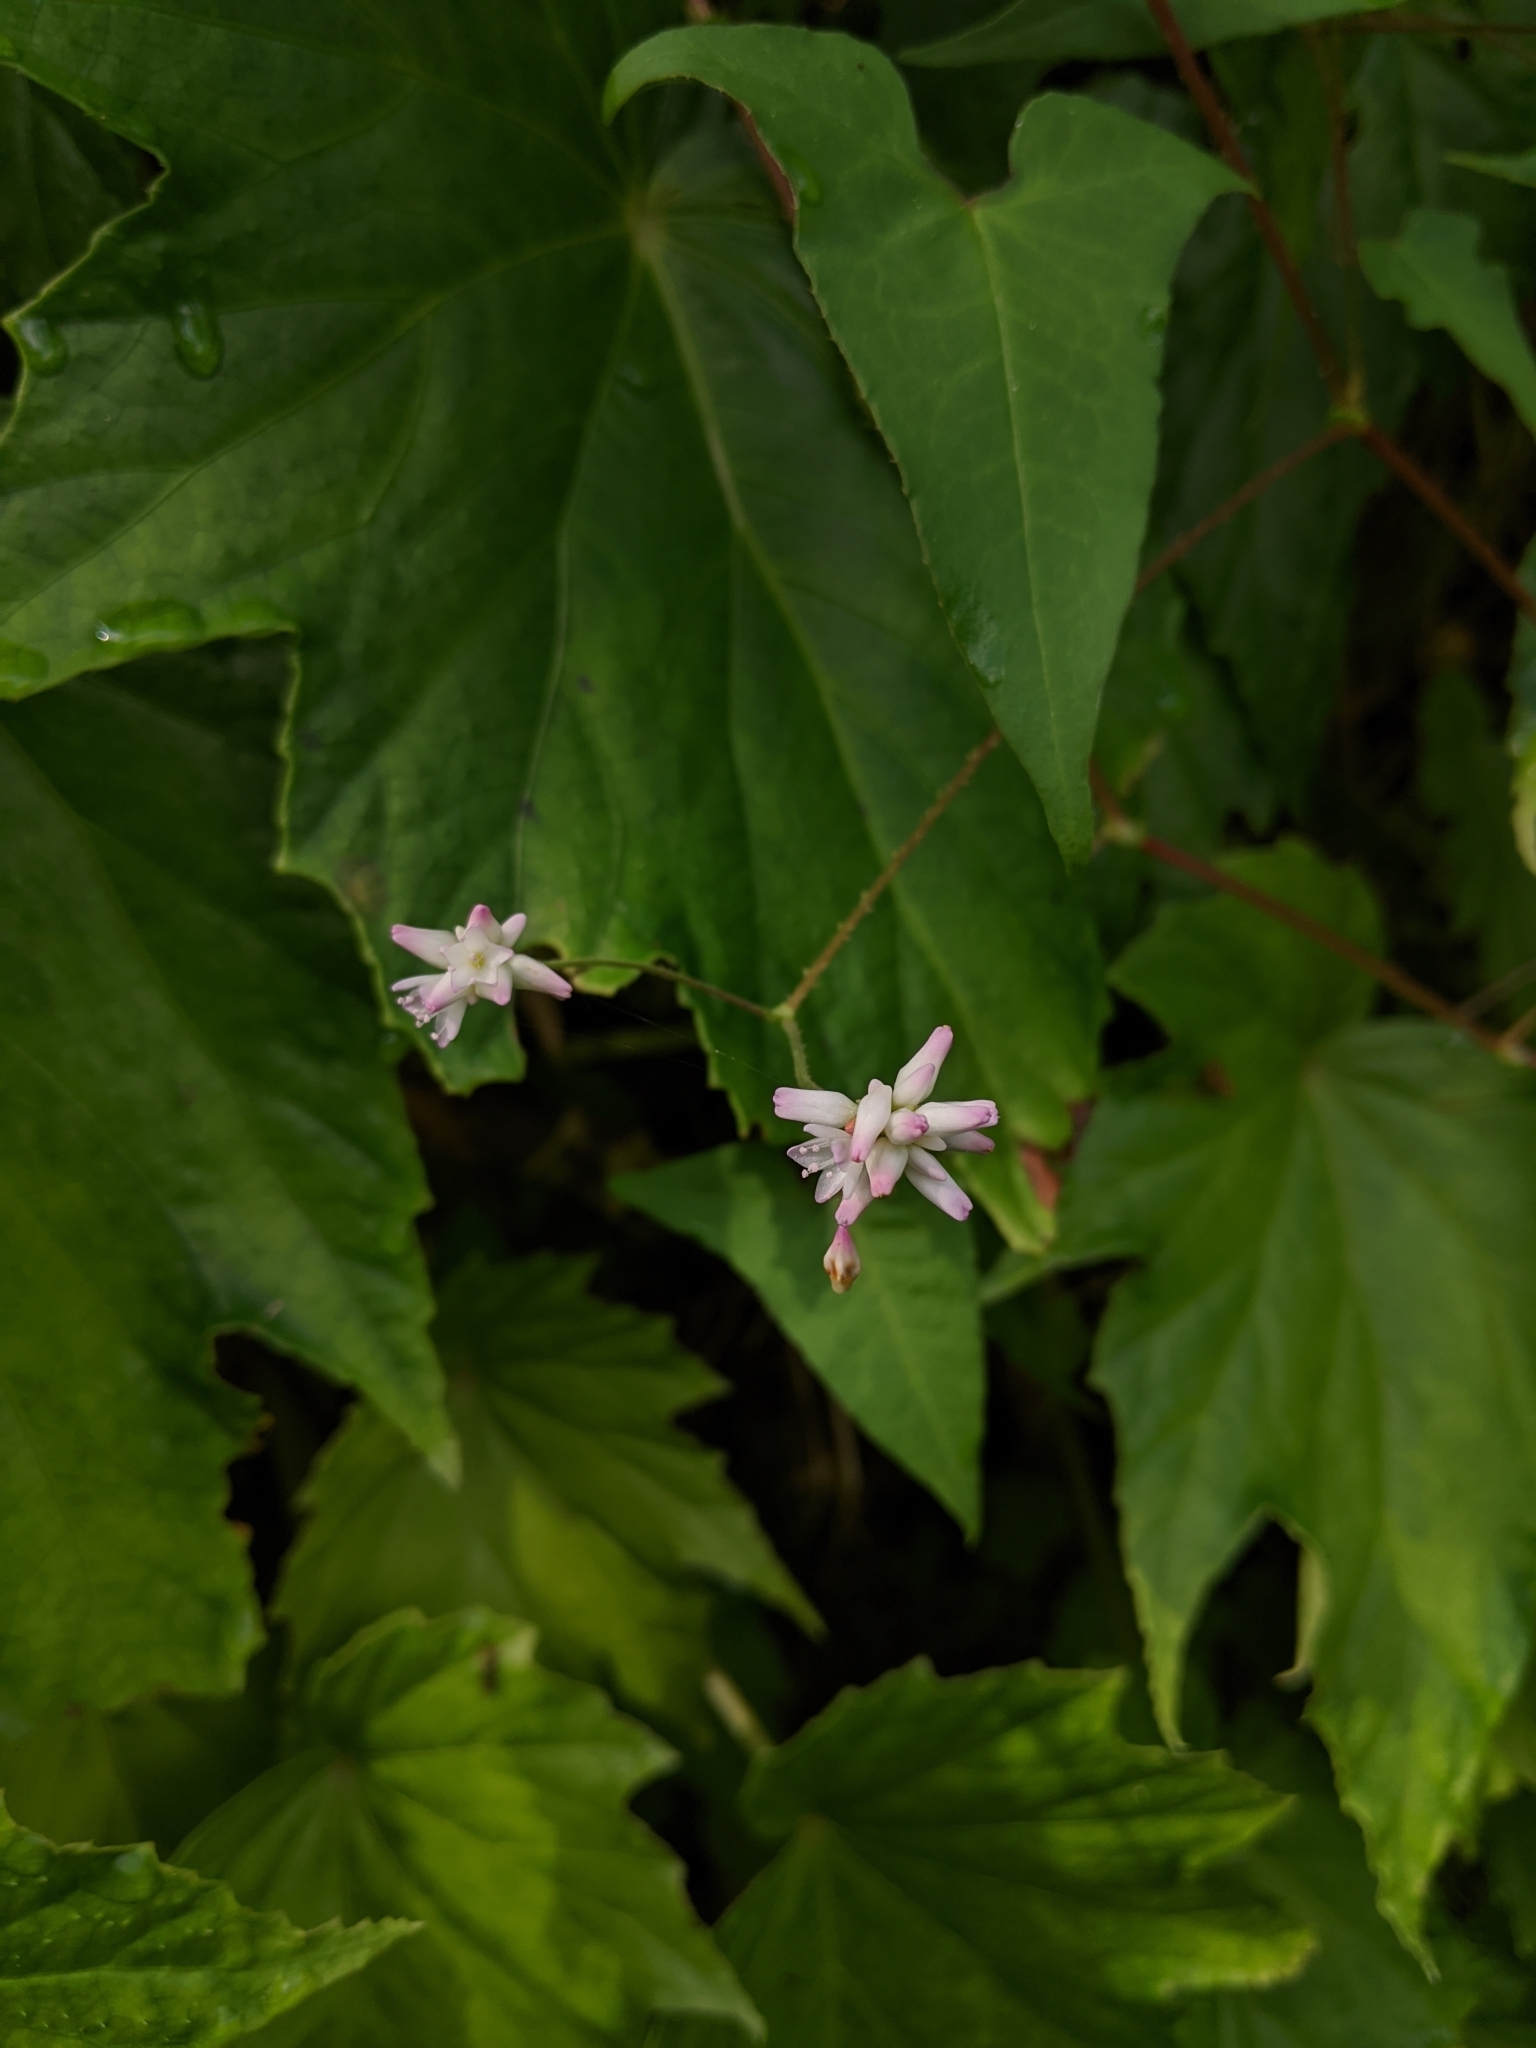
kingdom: Plantae
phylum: Tracheophyta
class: Magnoliopsida
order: Caryophyllales
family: Polygonaceae
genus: Persicaria
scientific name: Persicaria senticosa
